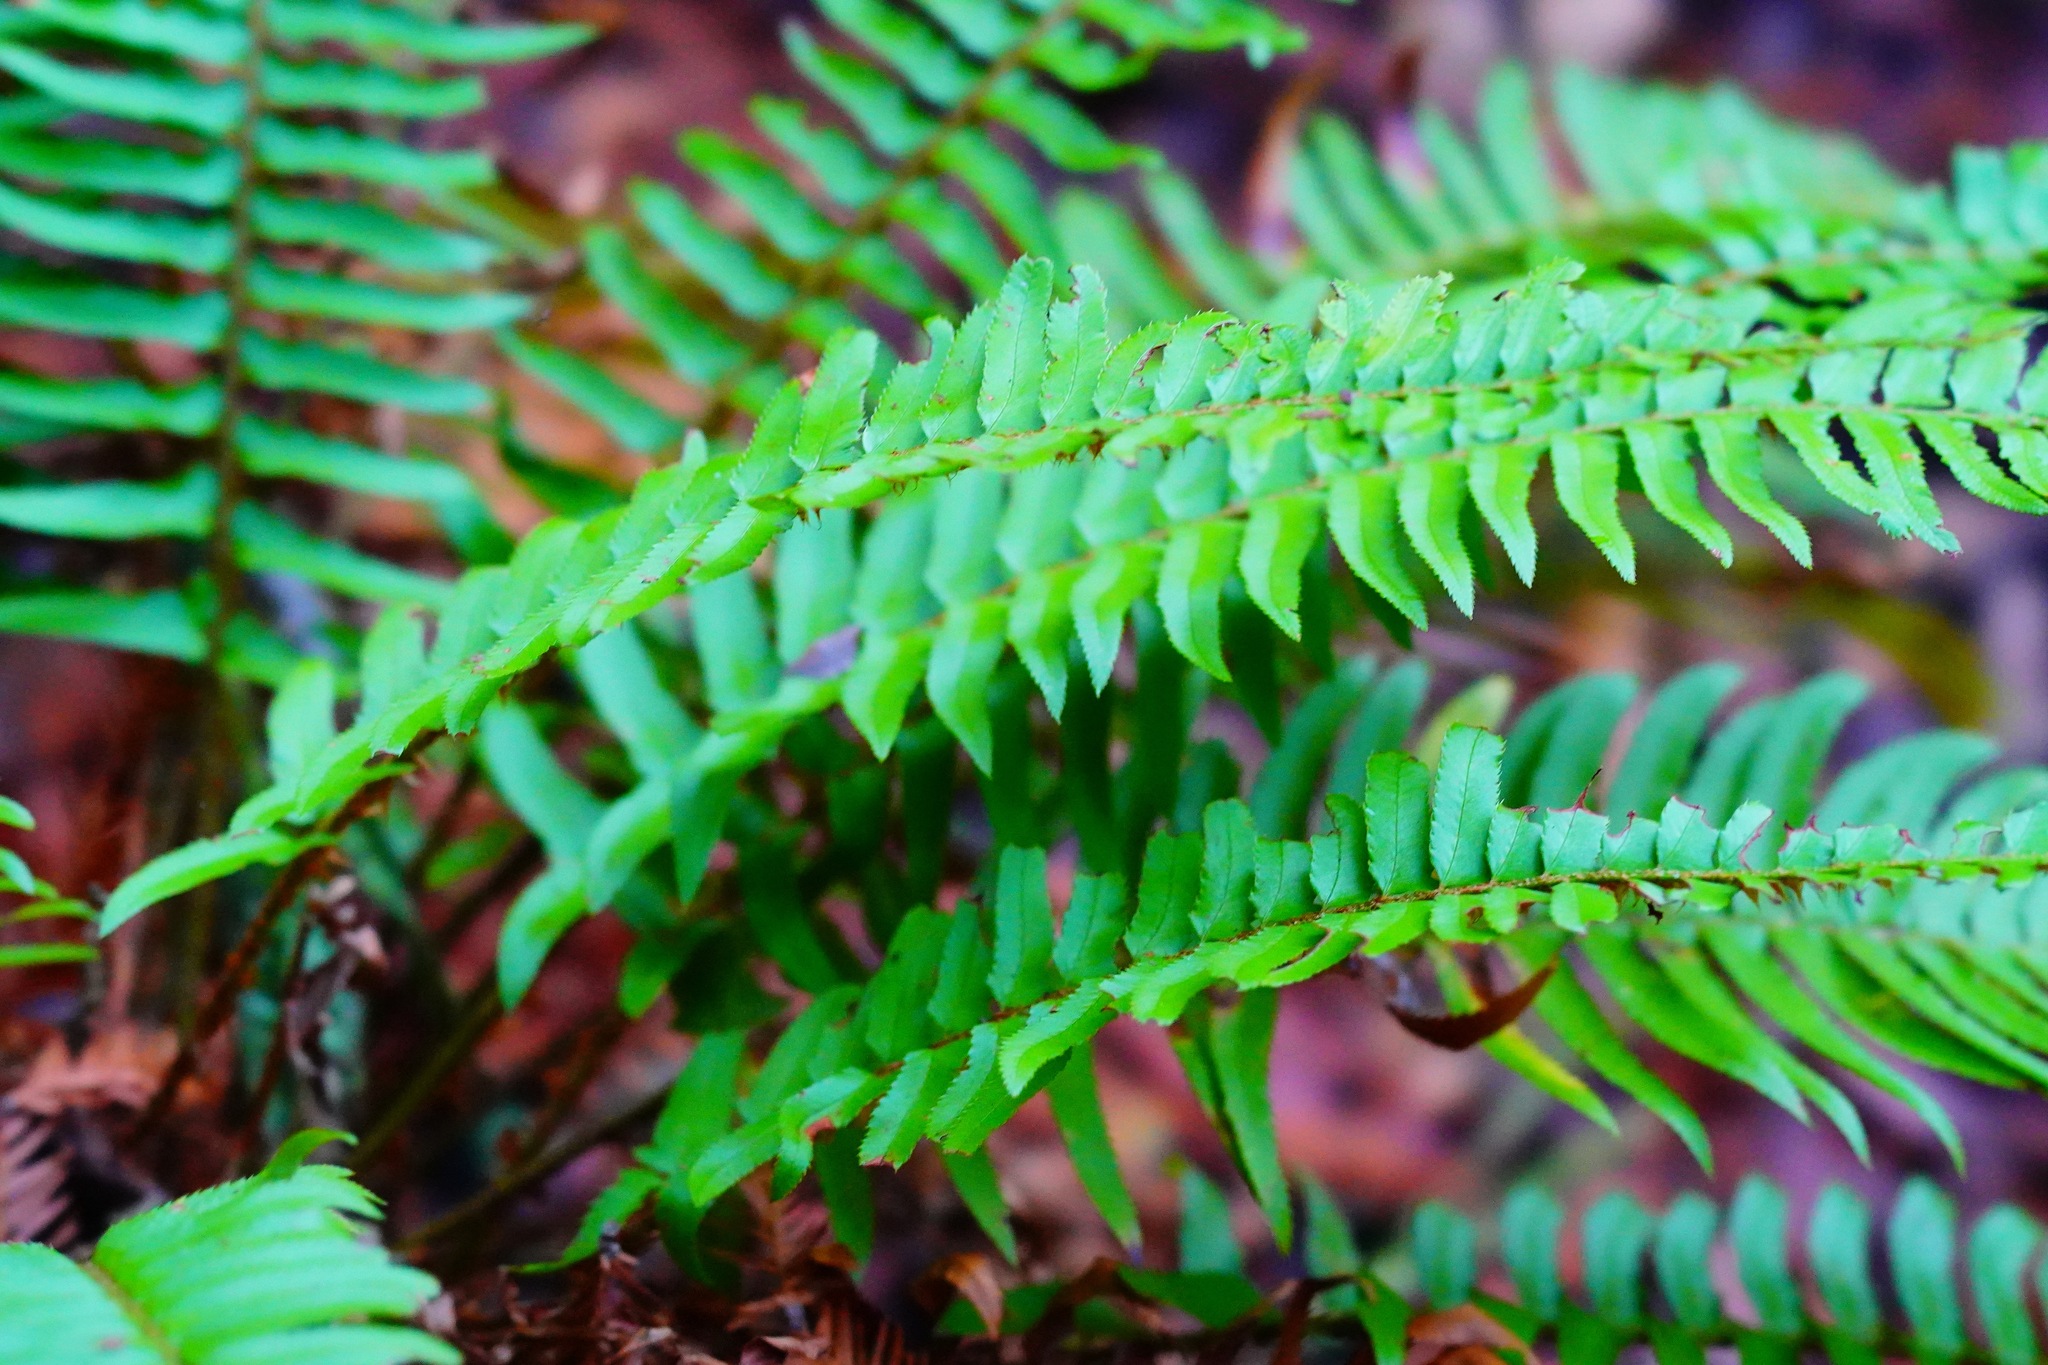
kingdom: Plantae
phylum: Tracheophyta
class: Polypodiopsida
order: Polypodiales
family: Dryopteridaceae
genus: Polystichum
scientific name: Polystichum munitum
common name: Western sword-fern
